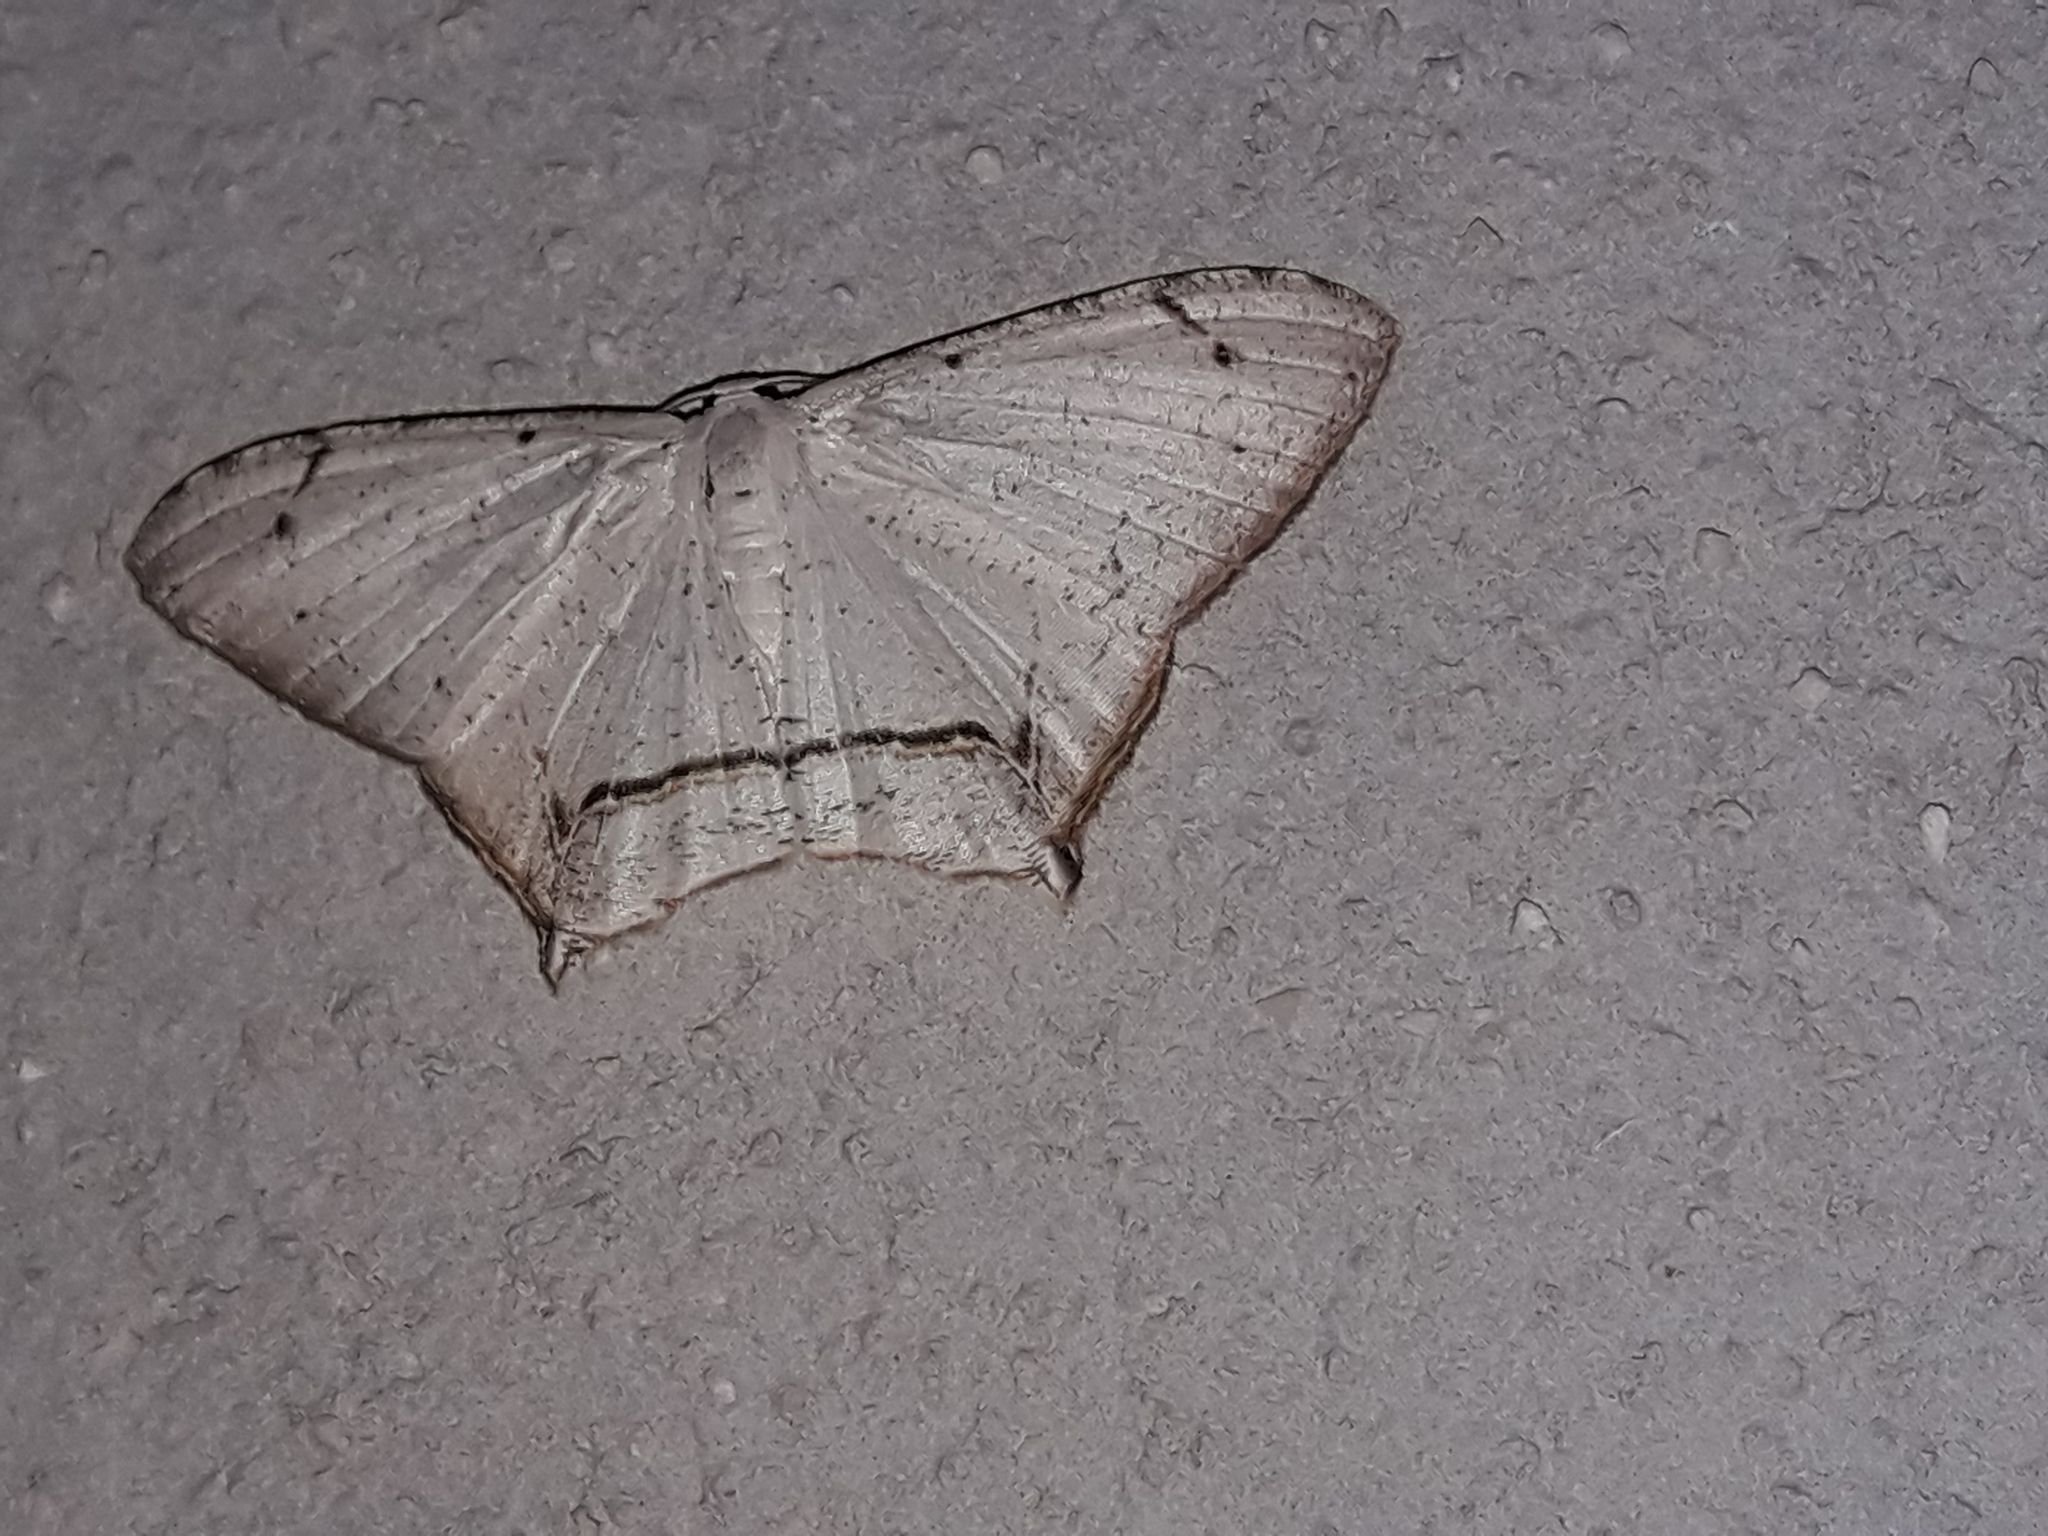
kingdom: Animalia
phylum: Arthropoda
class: Insecta
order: Lepidoptera
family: Uraniidae
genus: Nedusia
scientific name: Nedusia cuticulata
